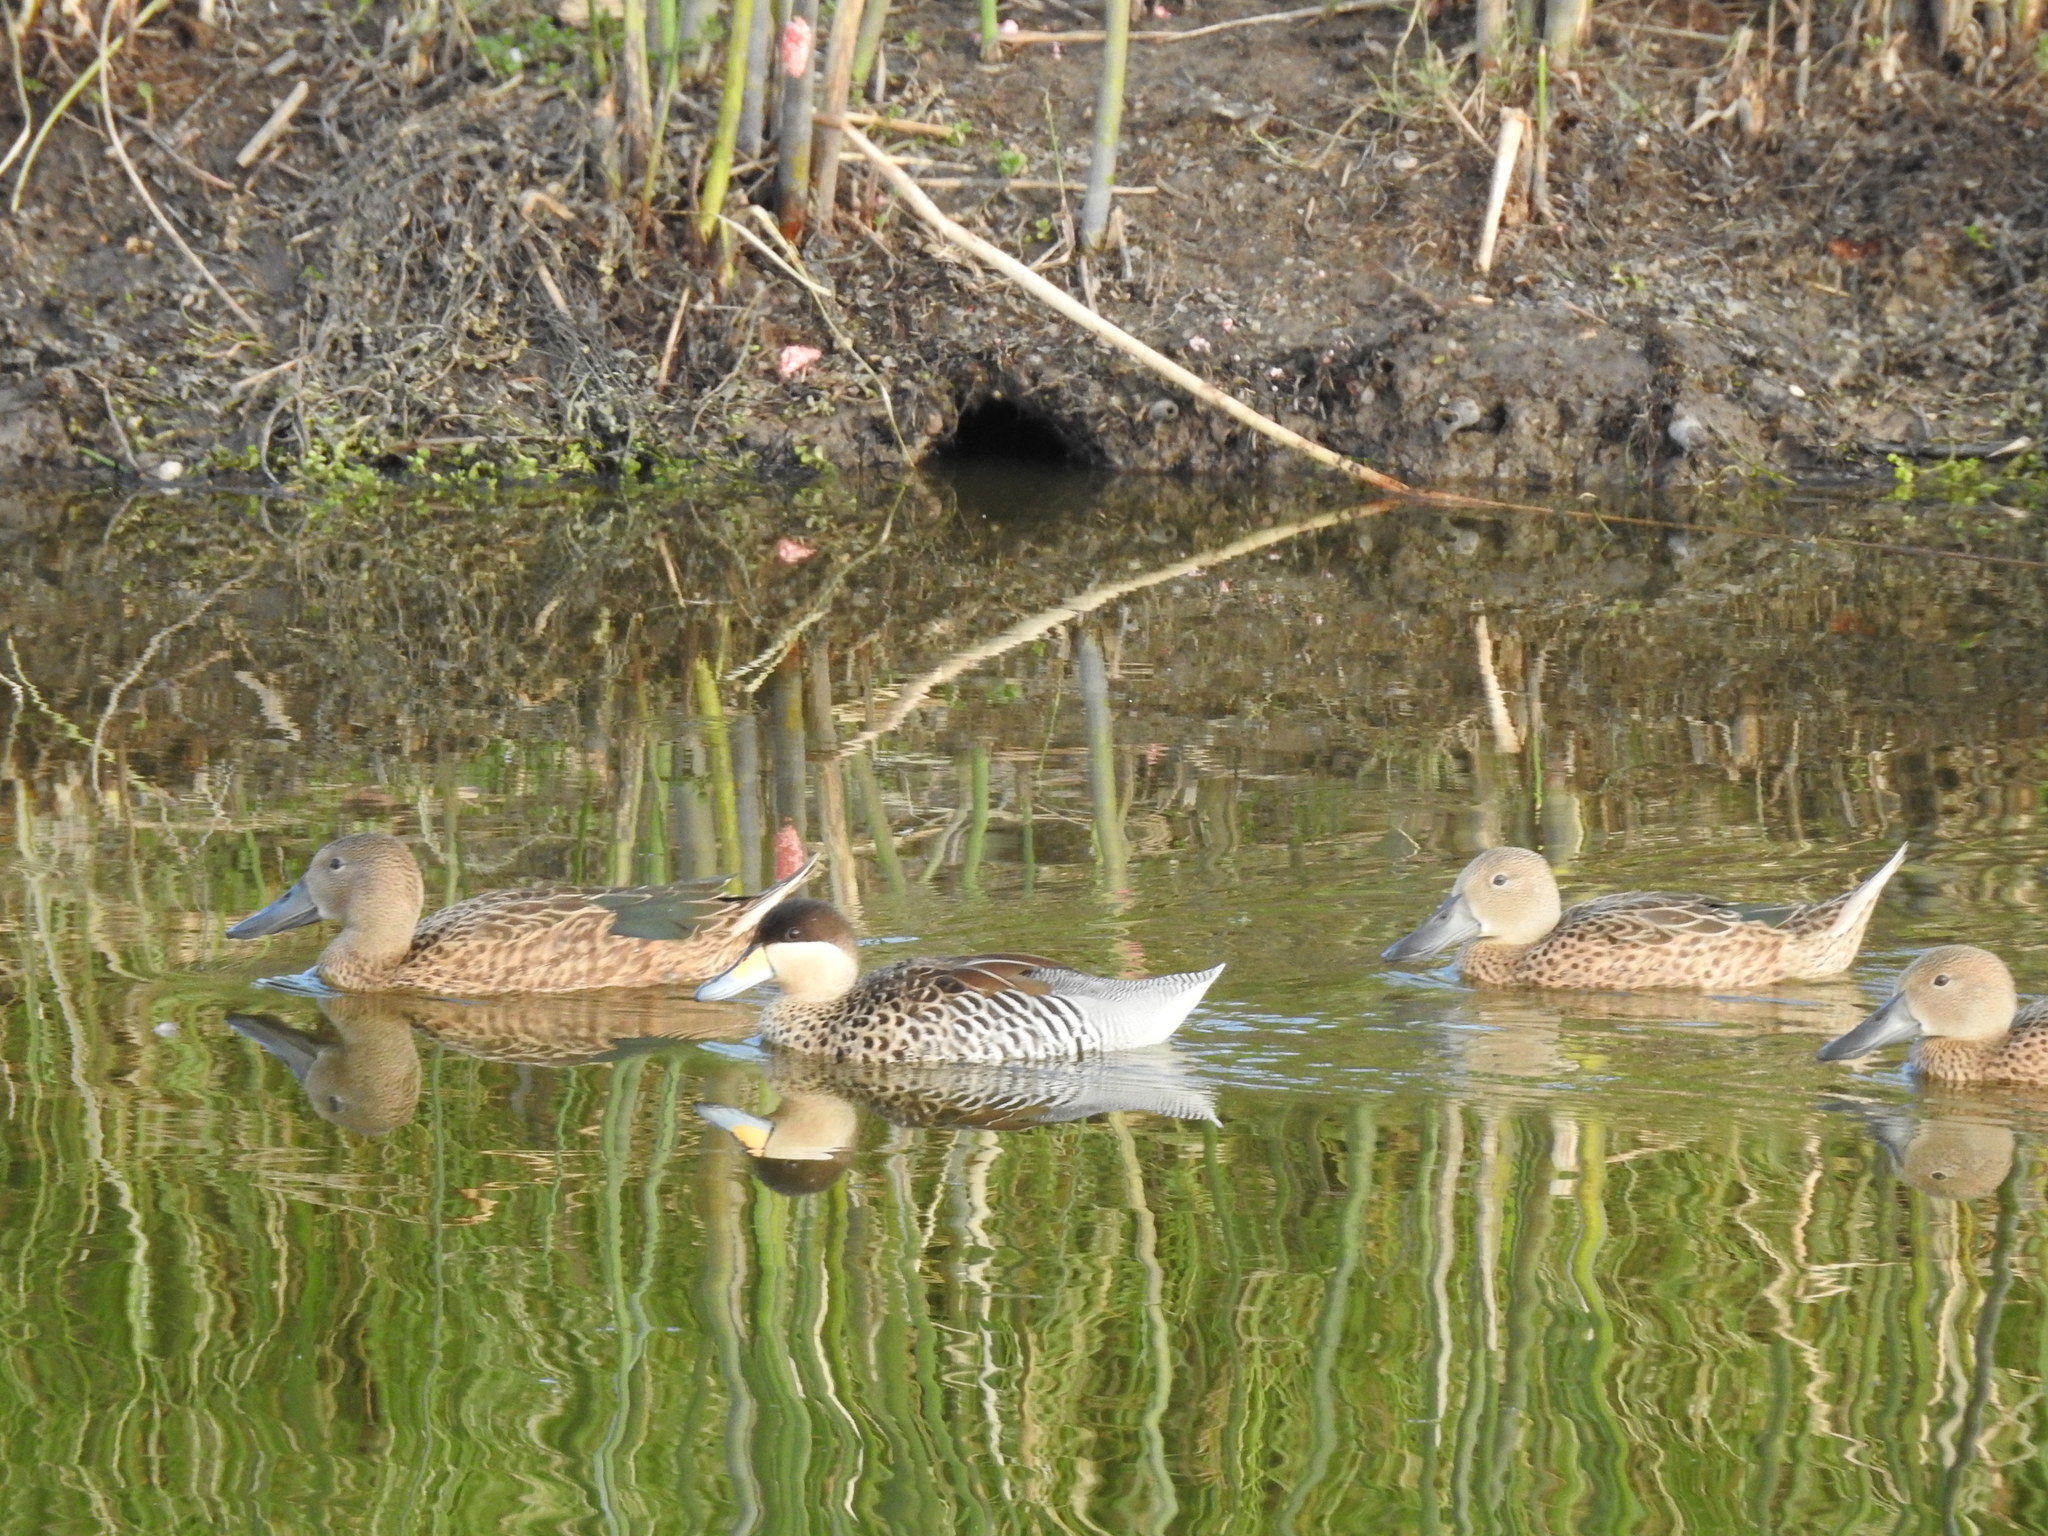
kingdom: Animalia
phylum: Chordata
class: Aves
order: Anseriformes
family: Anatidae
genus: Spatula
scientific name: Spatula versicolor
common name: Silver teal
